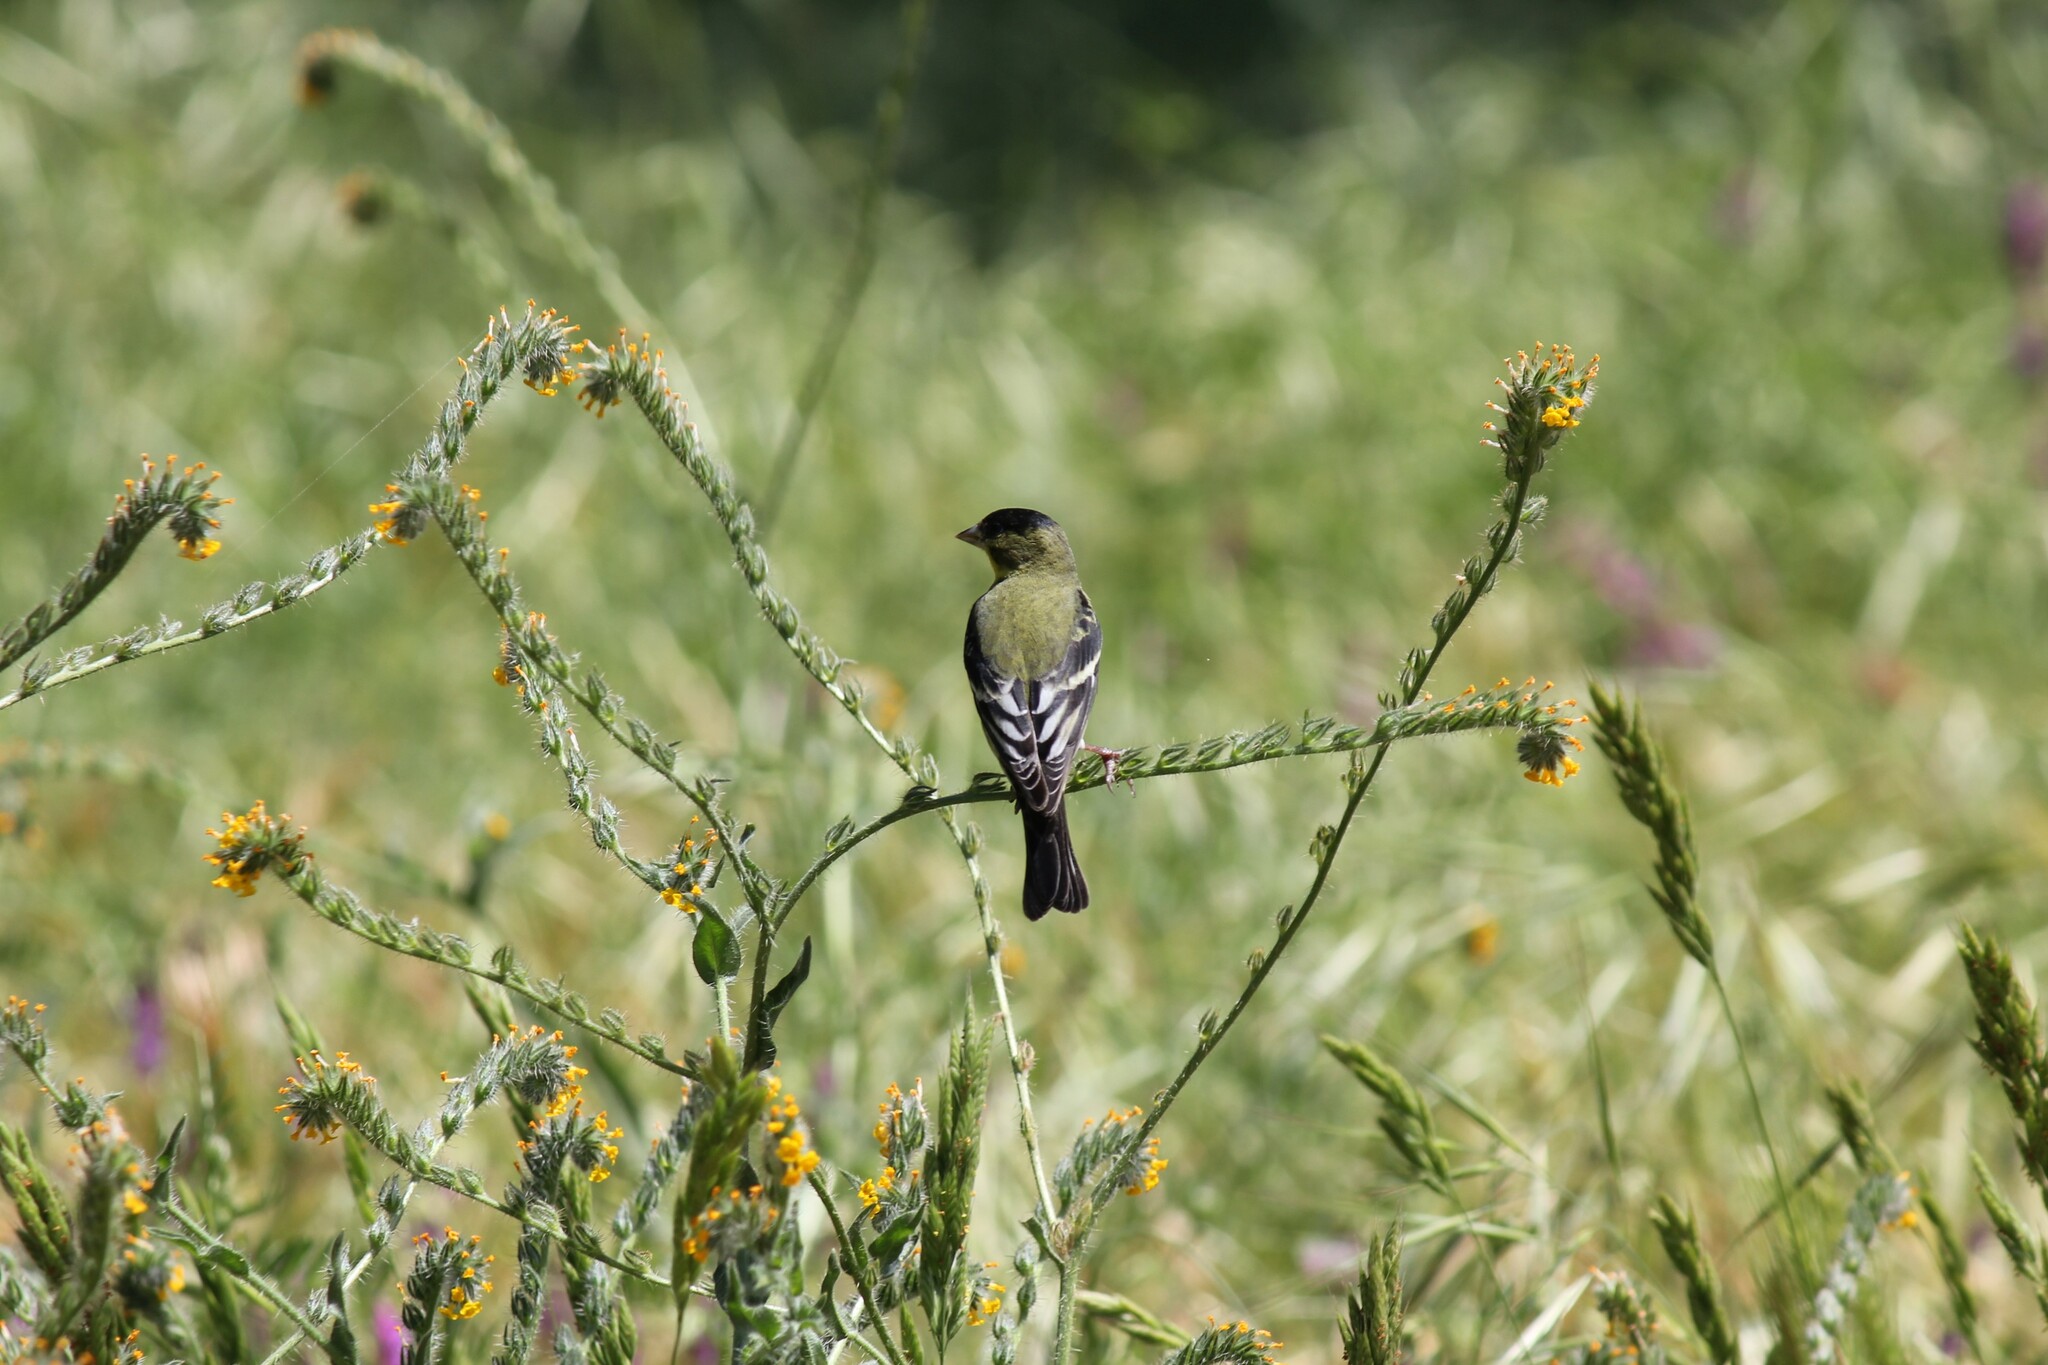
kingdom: Animalia
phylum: Chordata
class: Aves
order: Passeriformes
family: Fringillidae
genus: Spinus
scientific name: Spinus psaltria
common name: Lesser goldfinch
